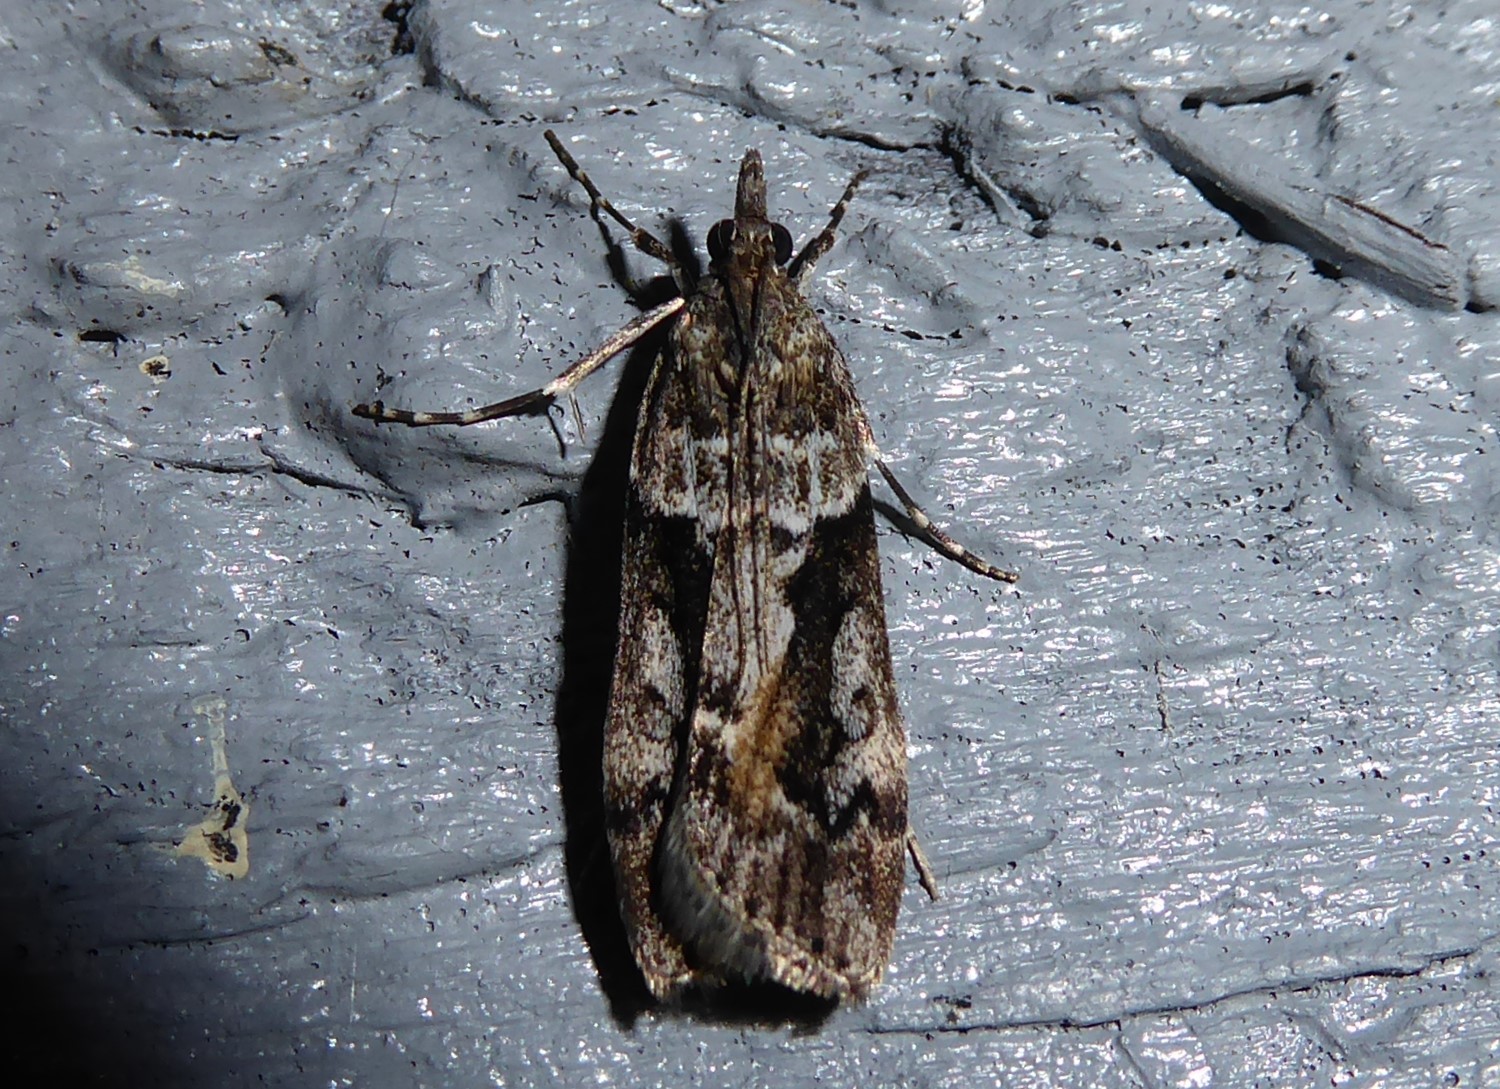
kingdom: Animalia
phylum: Arthropoda
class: Insecta
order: Lepidoptera
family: Crambidae
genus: Eudonia
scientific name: Eudonia submarginalis
